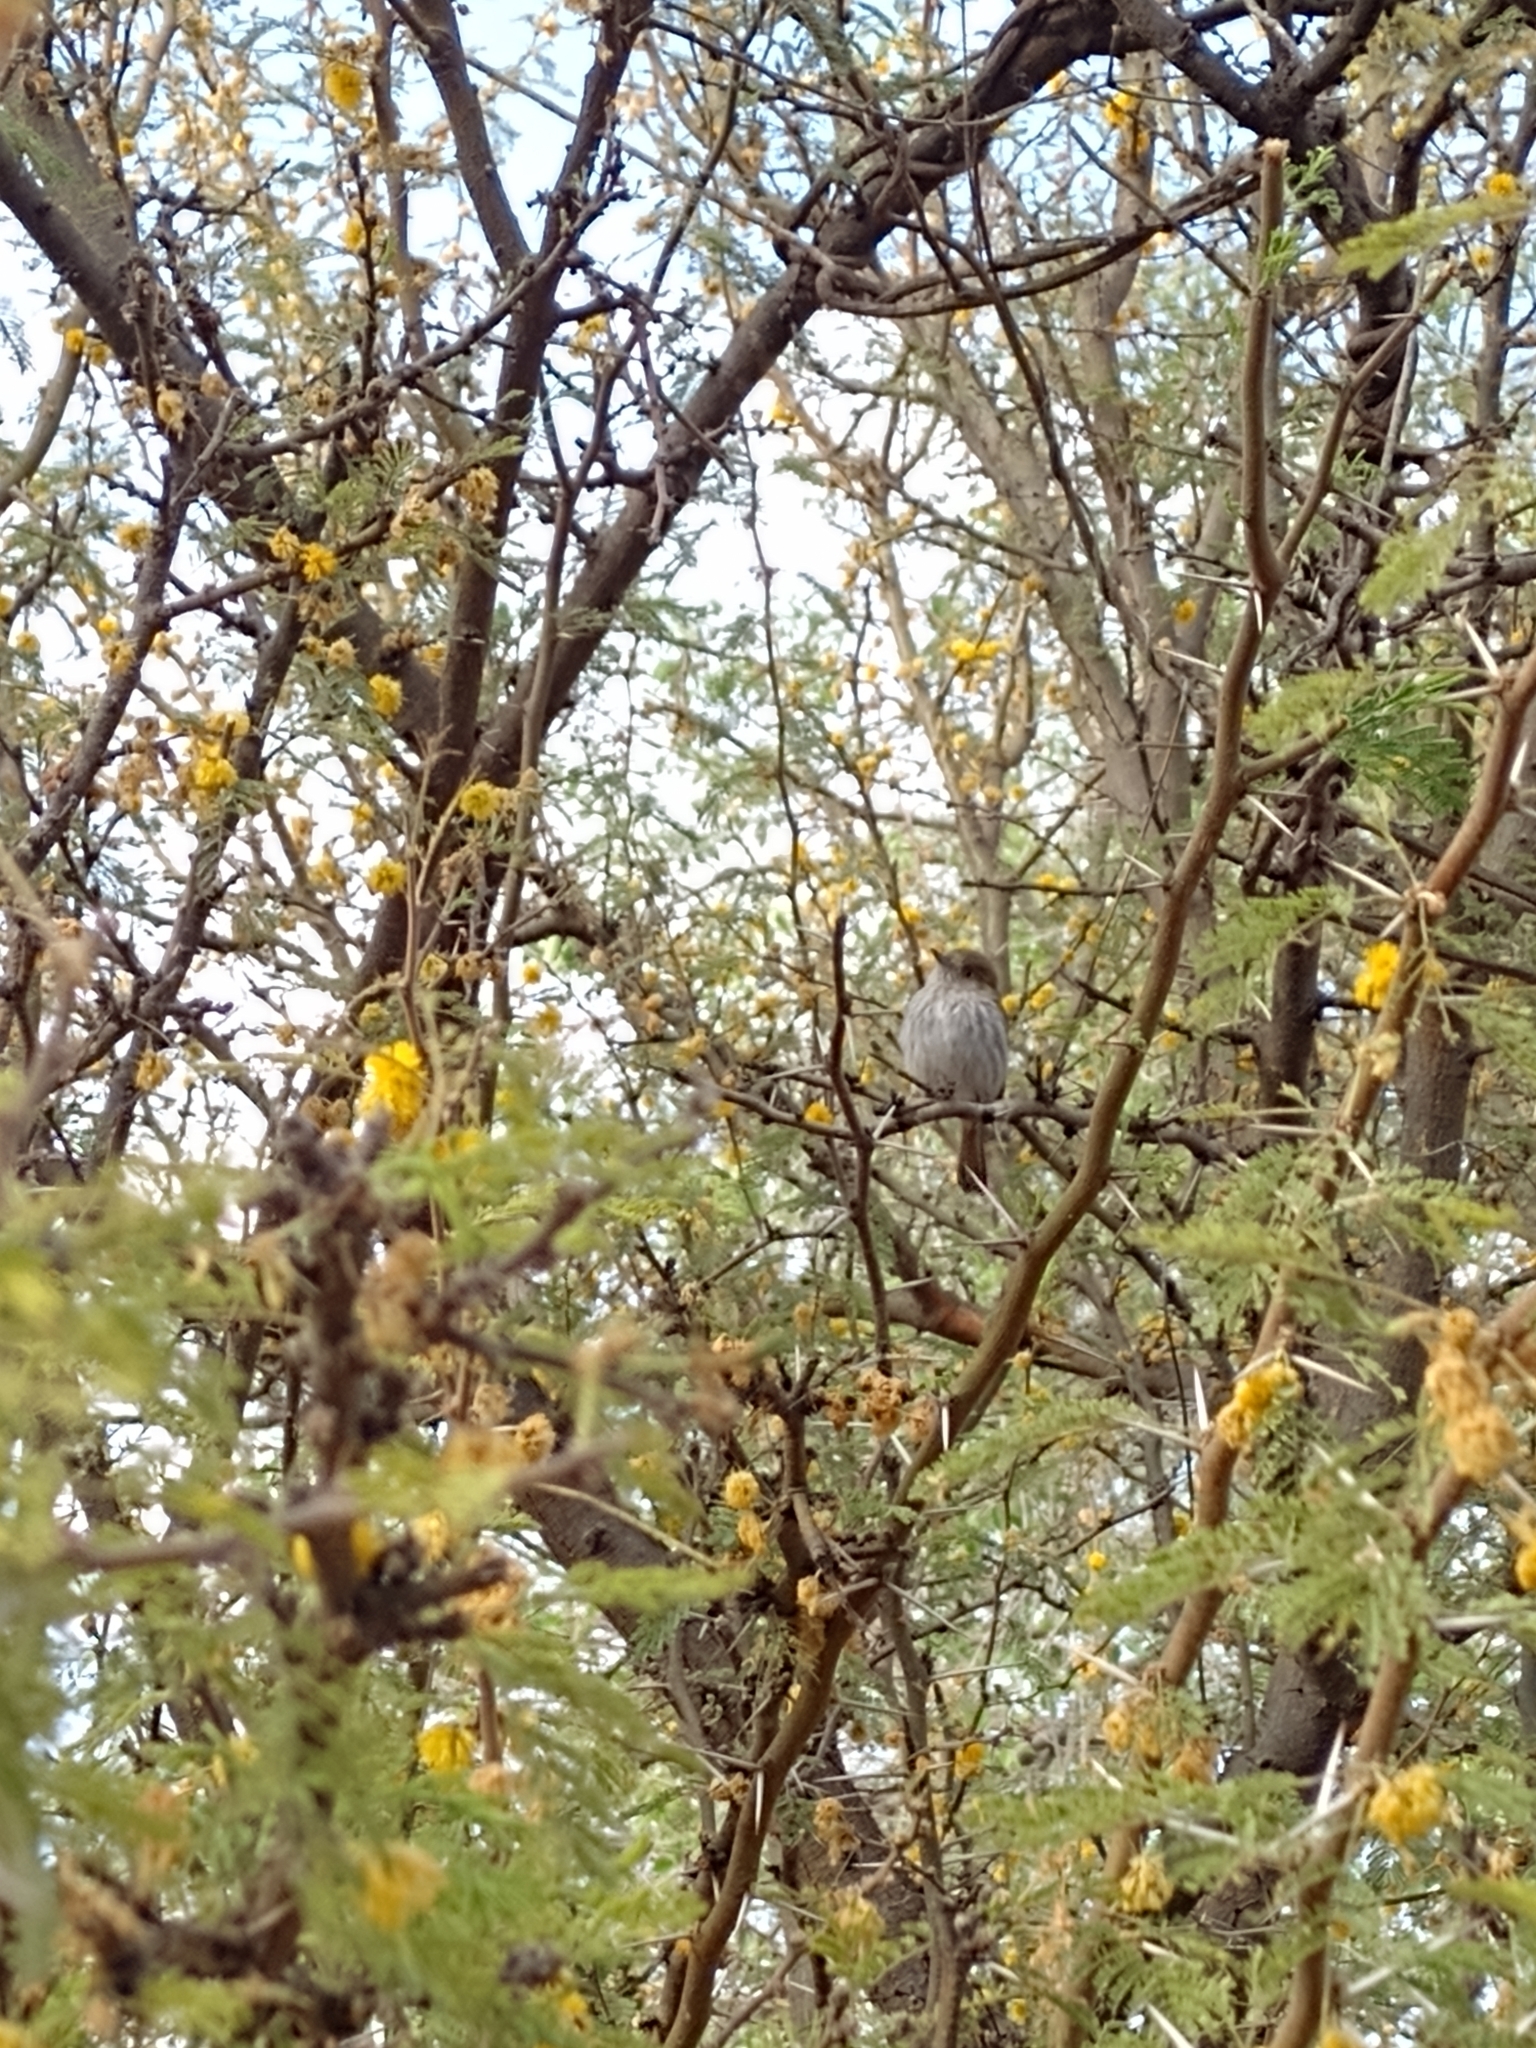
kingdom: Animalia
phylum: Chordata
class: Aves
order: Passeriformes
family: Tyrannidae
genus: Hemitriccus
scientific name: Hemitriccus margaritaceiventer
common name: Pearly-vented tody-tyrant
